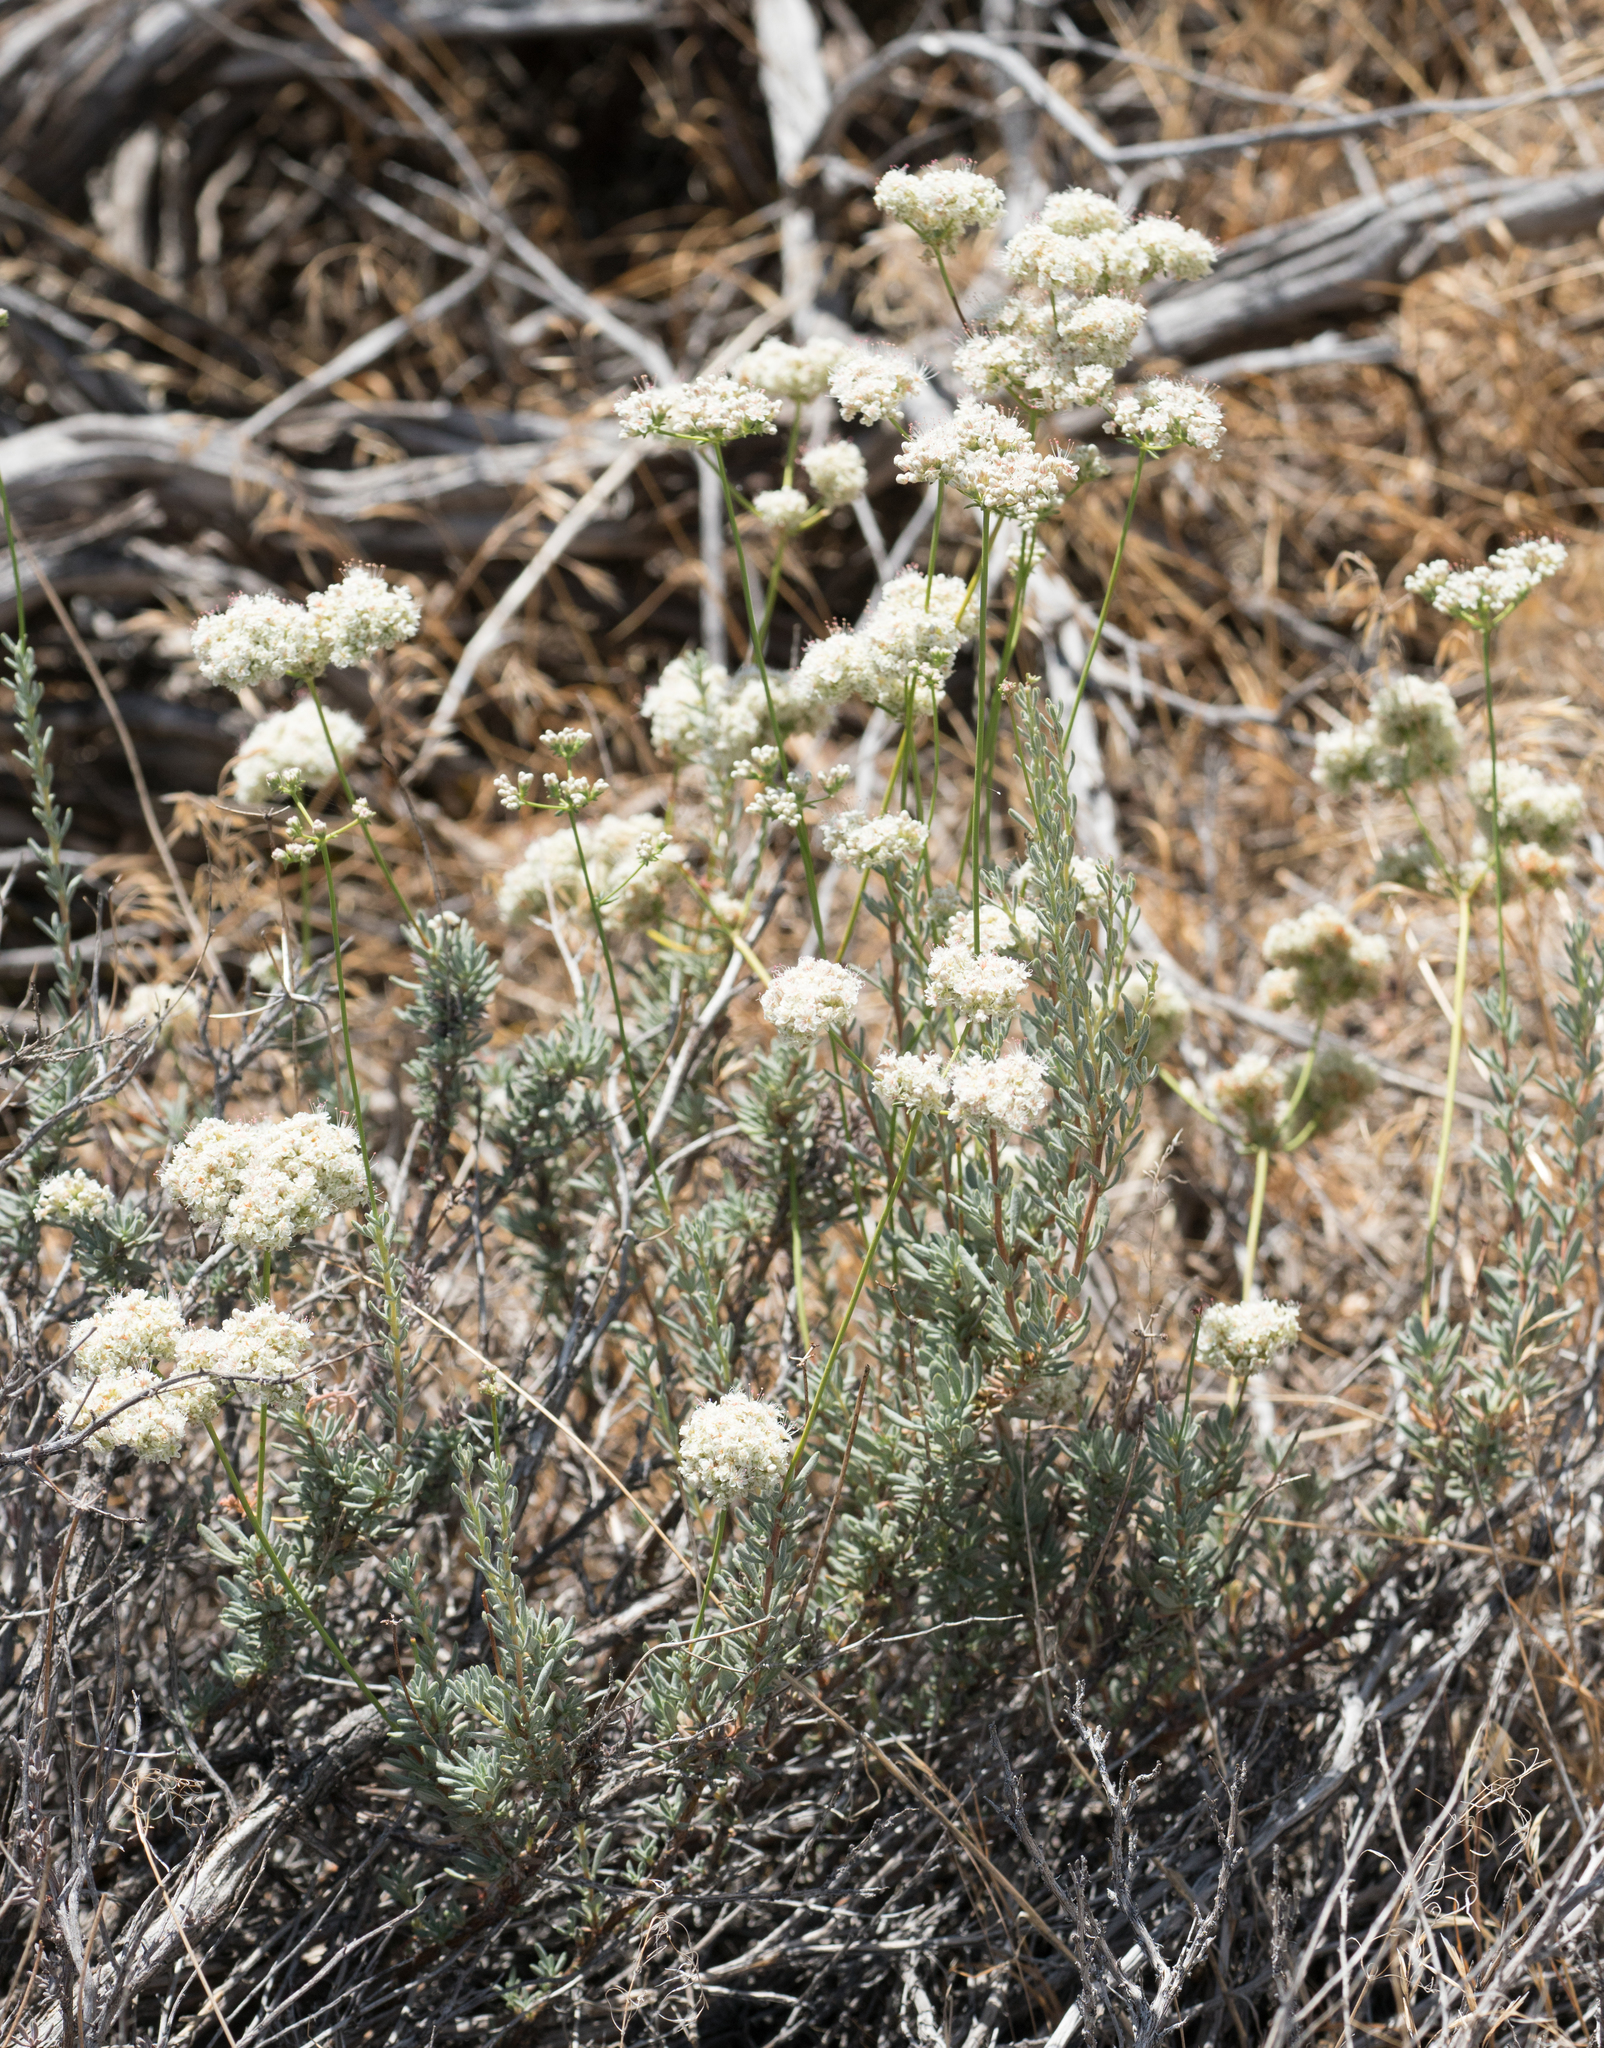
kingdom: Plantae
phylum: Tracheophyta
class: Magnoliopsida
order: Caryophyllales
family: Polygonaceae
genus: Eriogonum
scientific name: Eriogonum fasciculatum
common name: California wild buckwheat
